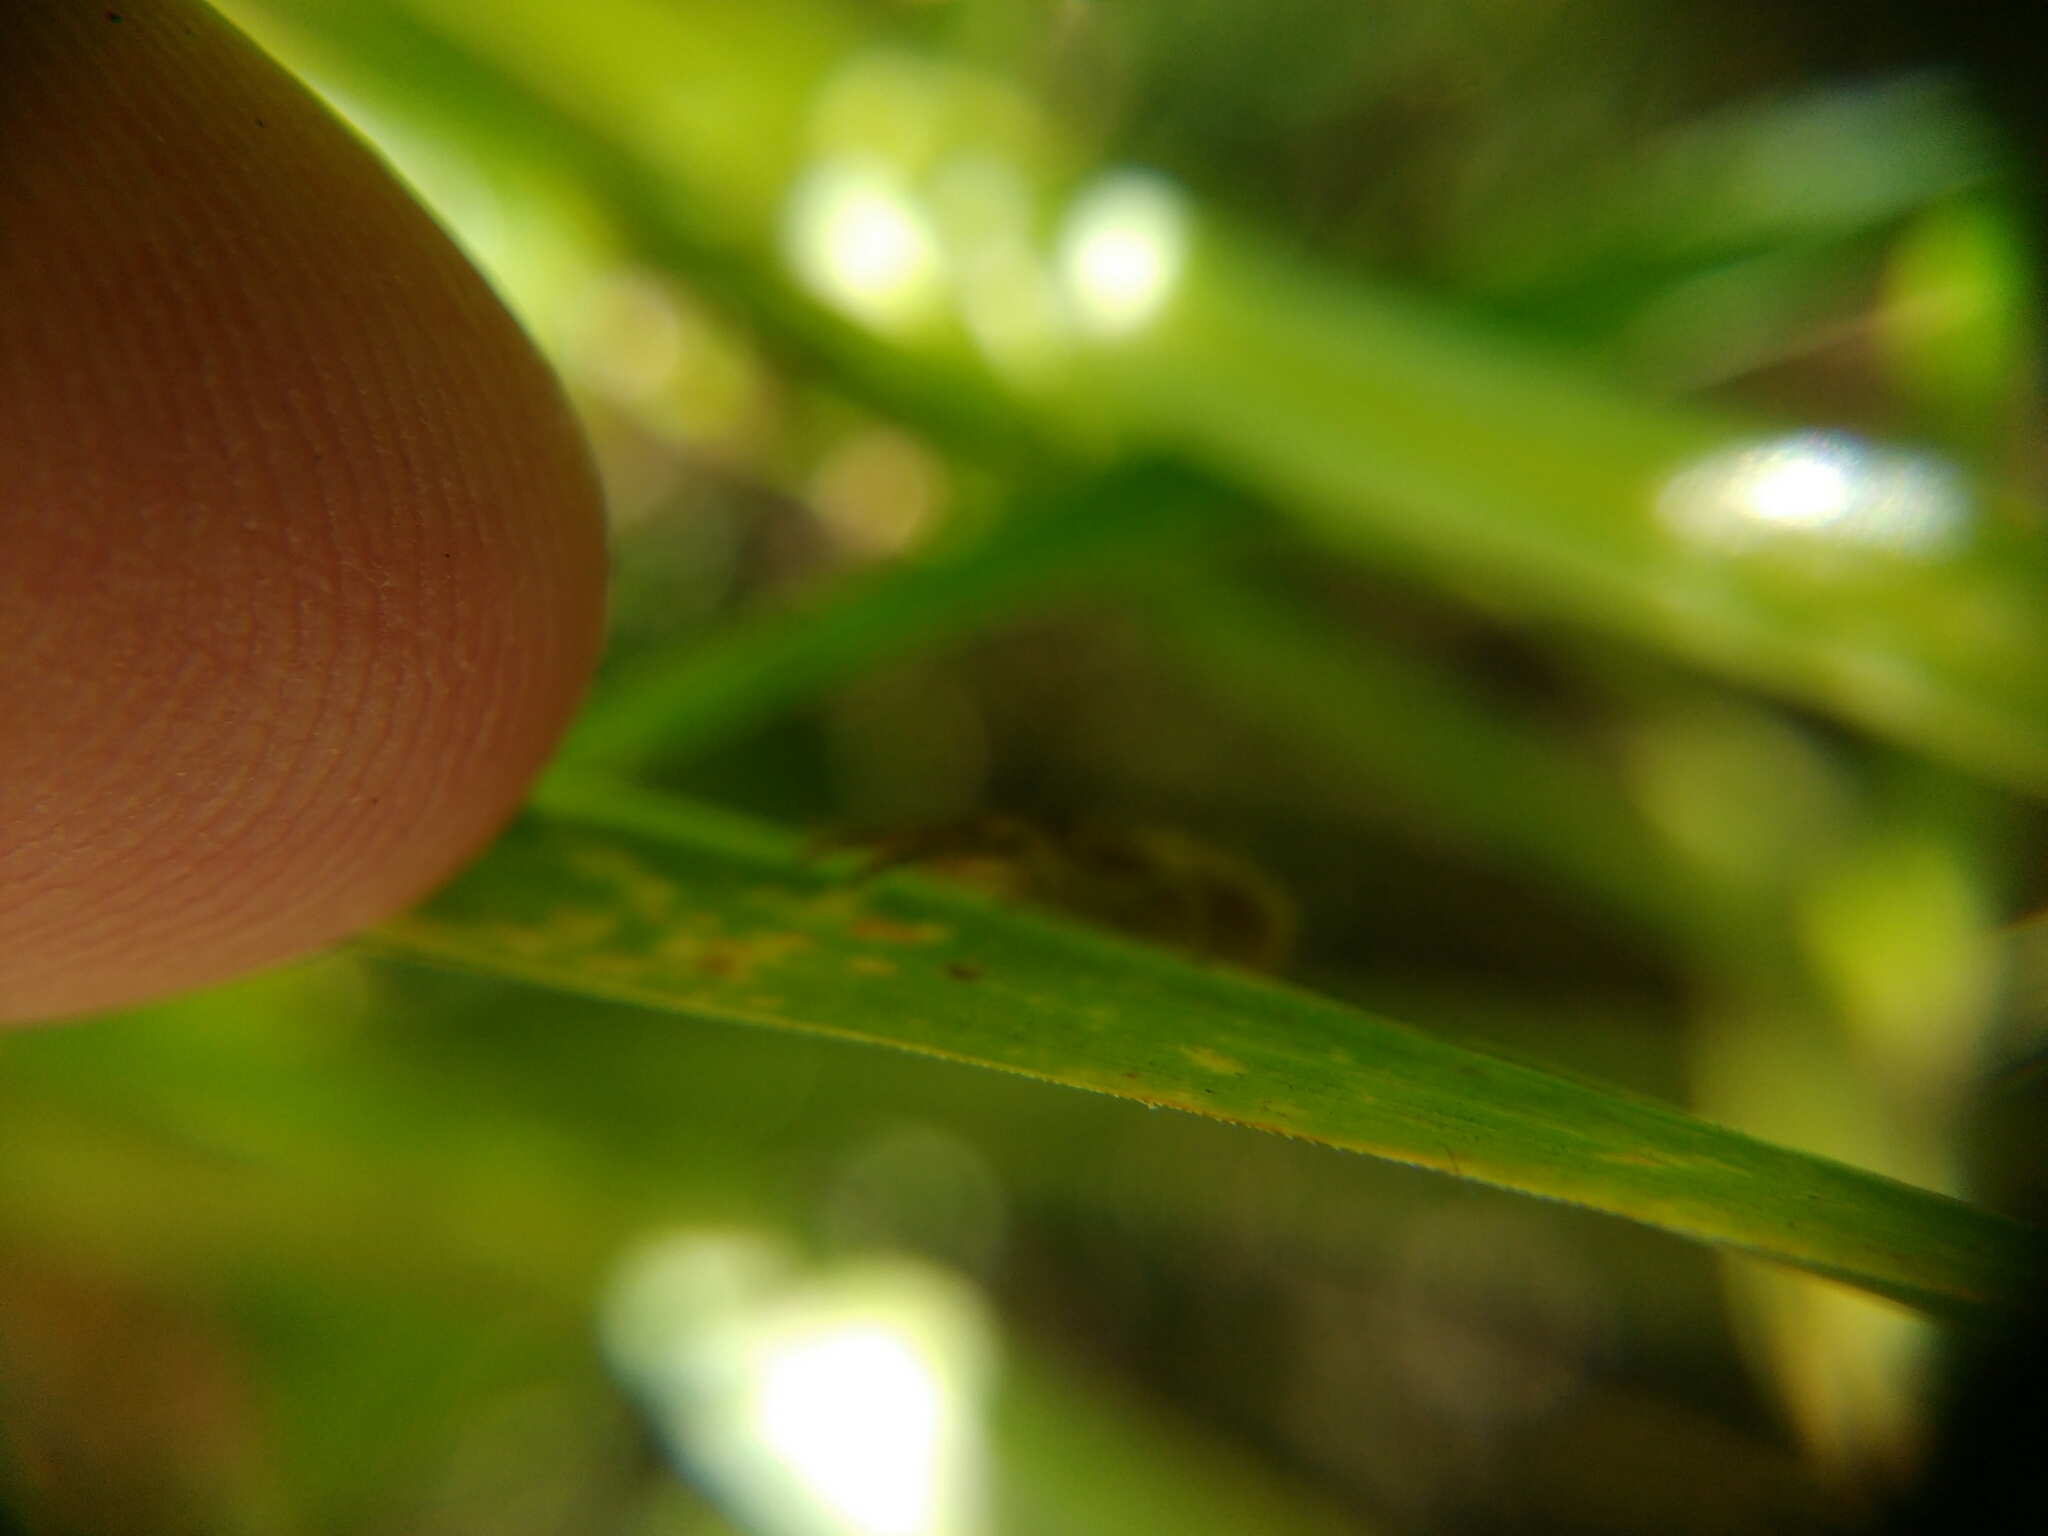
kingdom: Animalia
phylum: Arthropoda
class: Arachnida
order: Araneae
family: Thomisidae
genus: Xysticus
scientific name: Xysticus
